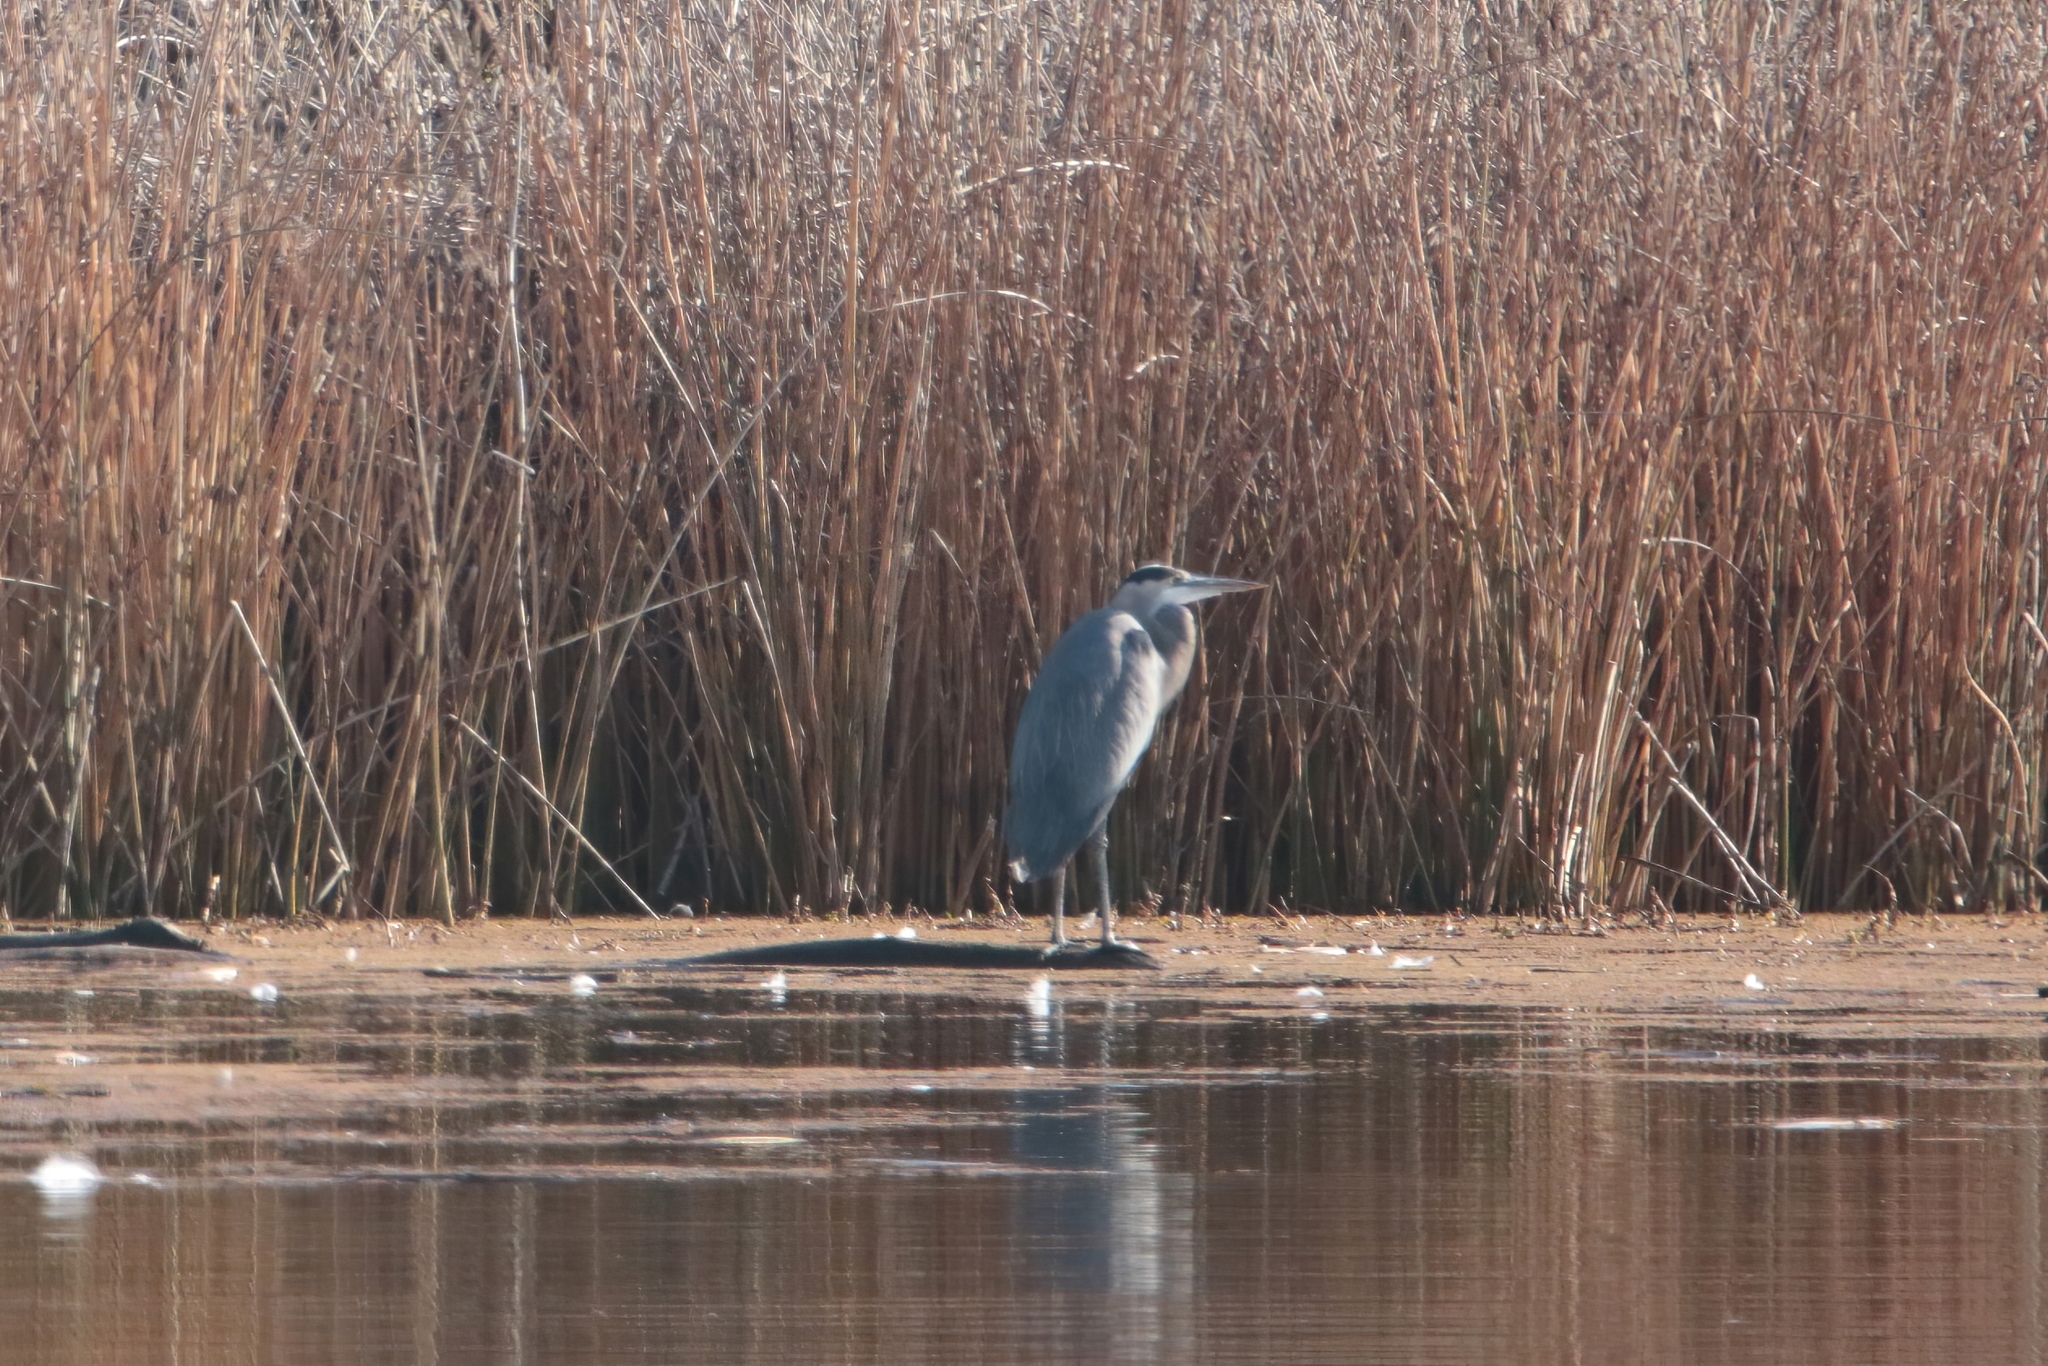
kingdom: Animalia
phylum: Chordata
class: Aves
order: Pelecaniformes
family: Ardeidae
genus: Ardea
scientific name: Ardea herodias
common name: Great blue heron
